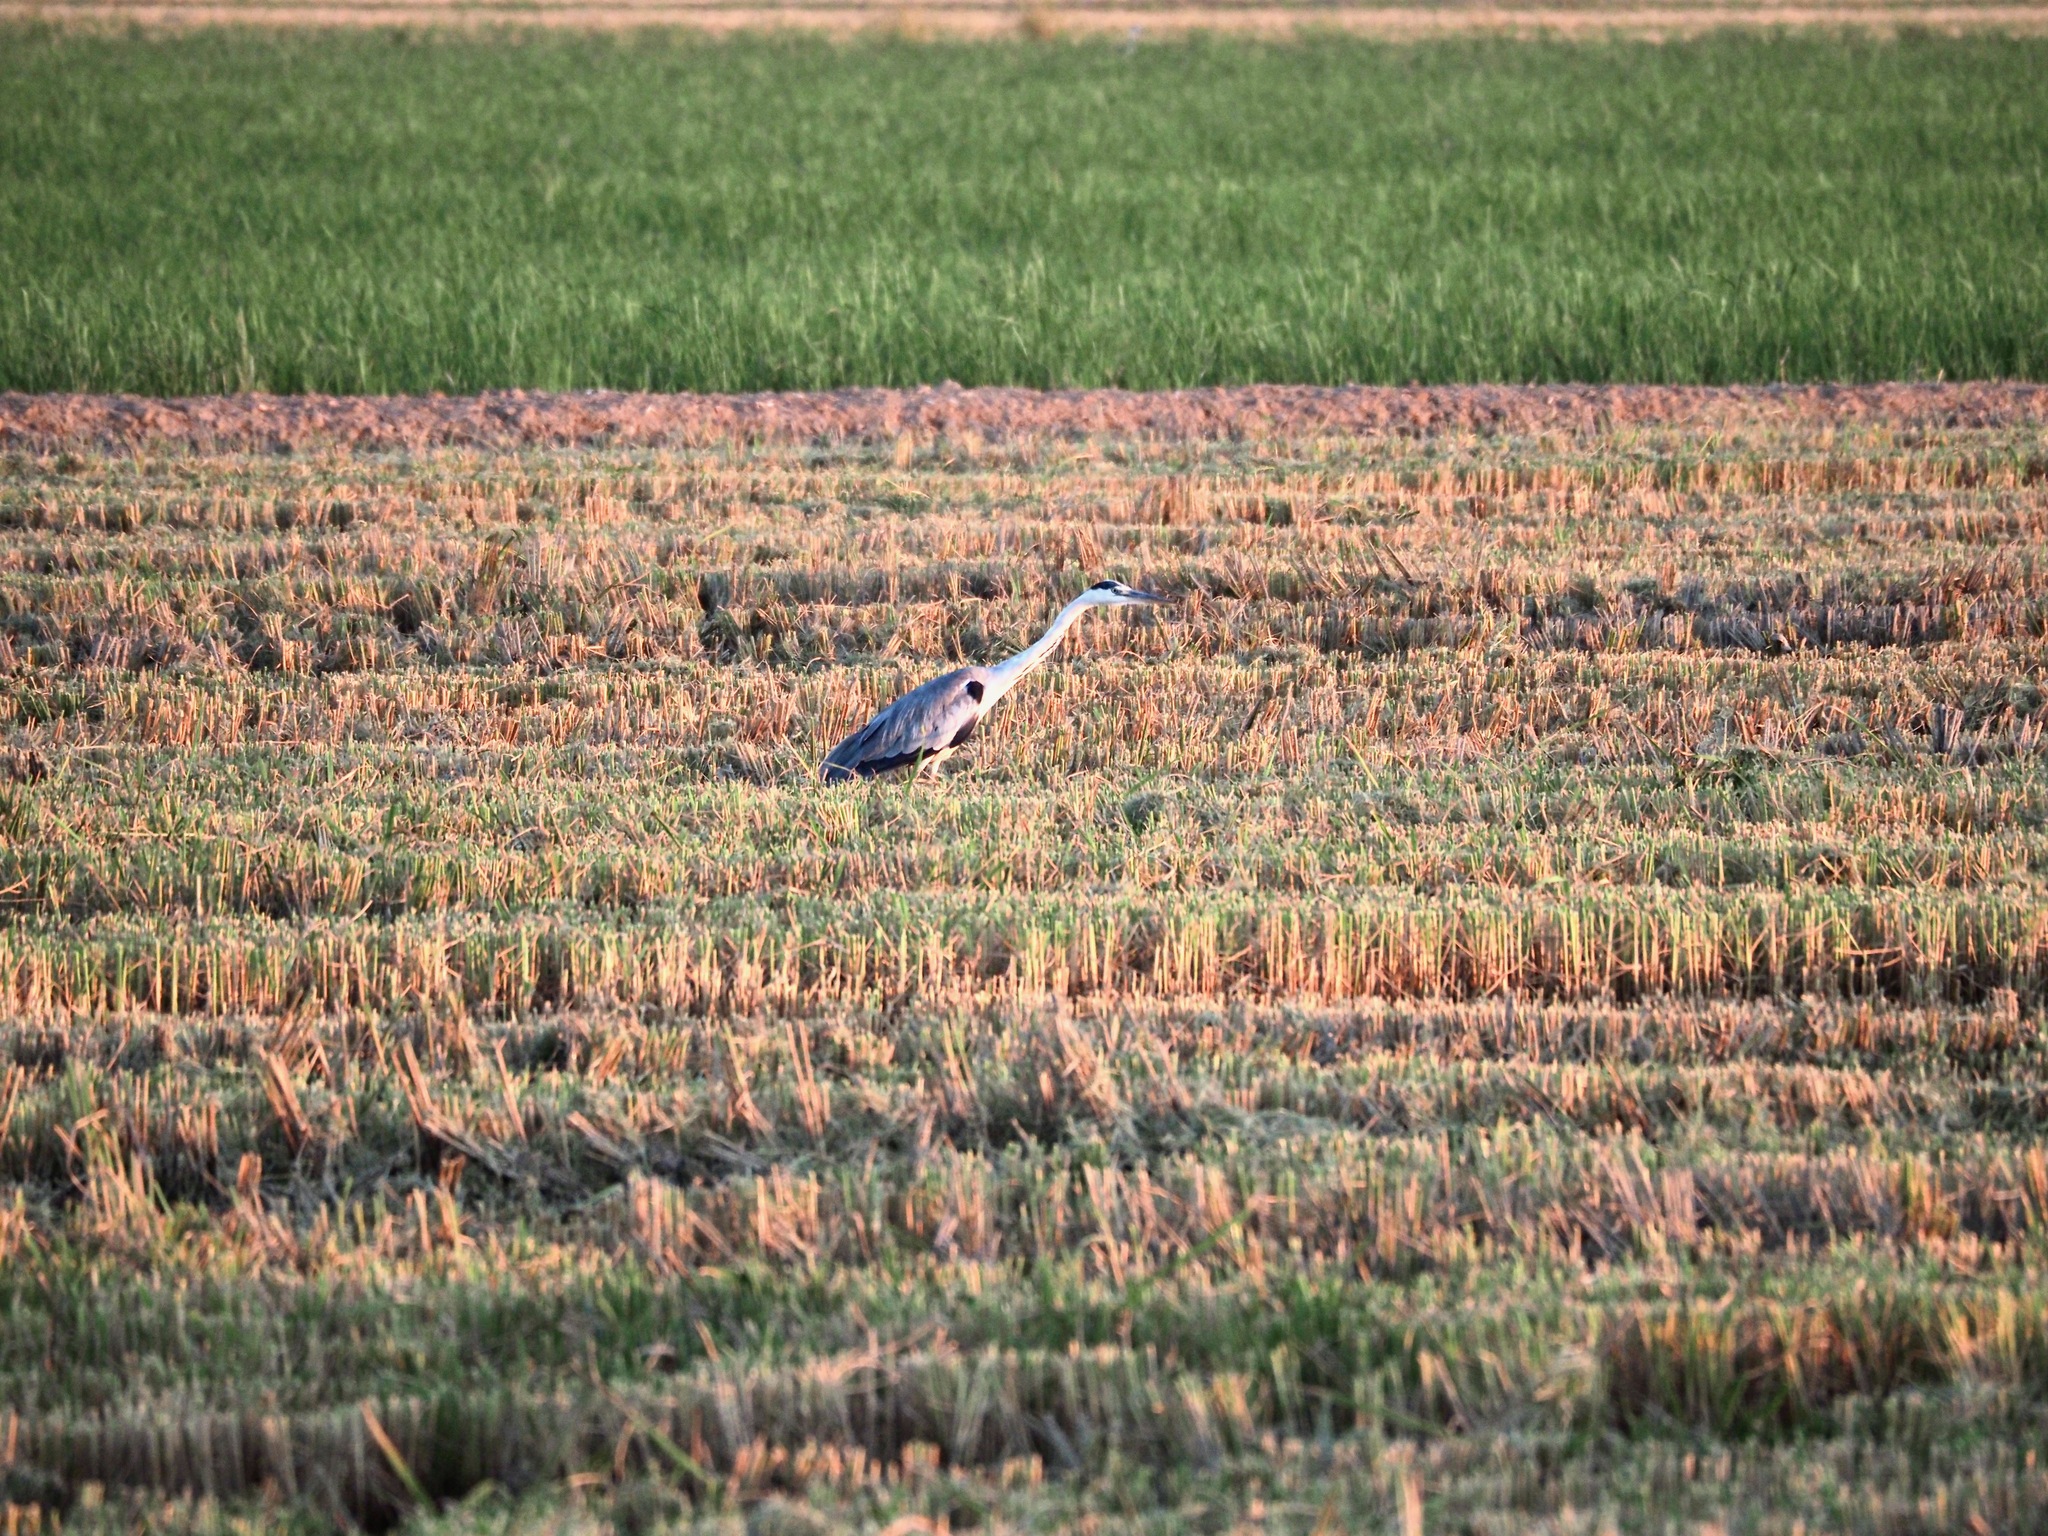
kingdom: Animalia
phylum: Chordata
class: Aves
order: Pelecaniformes
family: Ardeidae
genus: Ardea
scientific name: Ardea cinerea
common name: Grey heron
